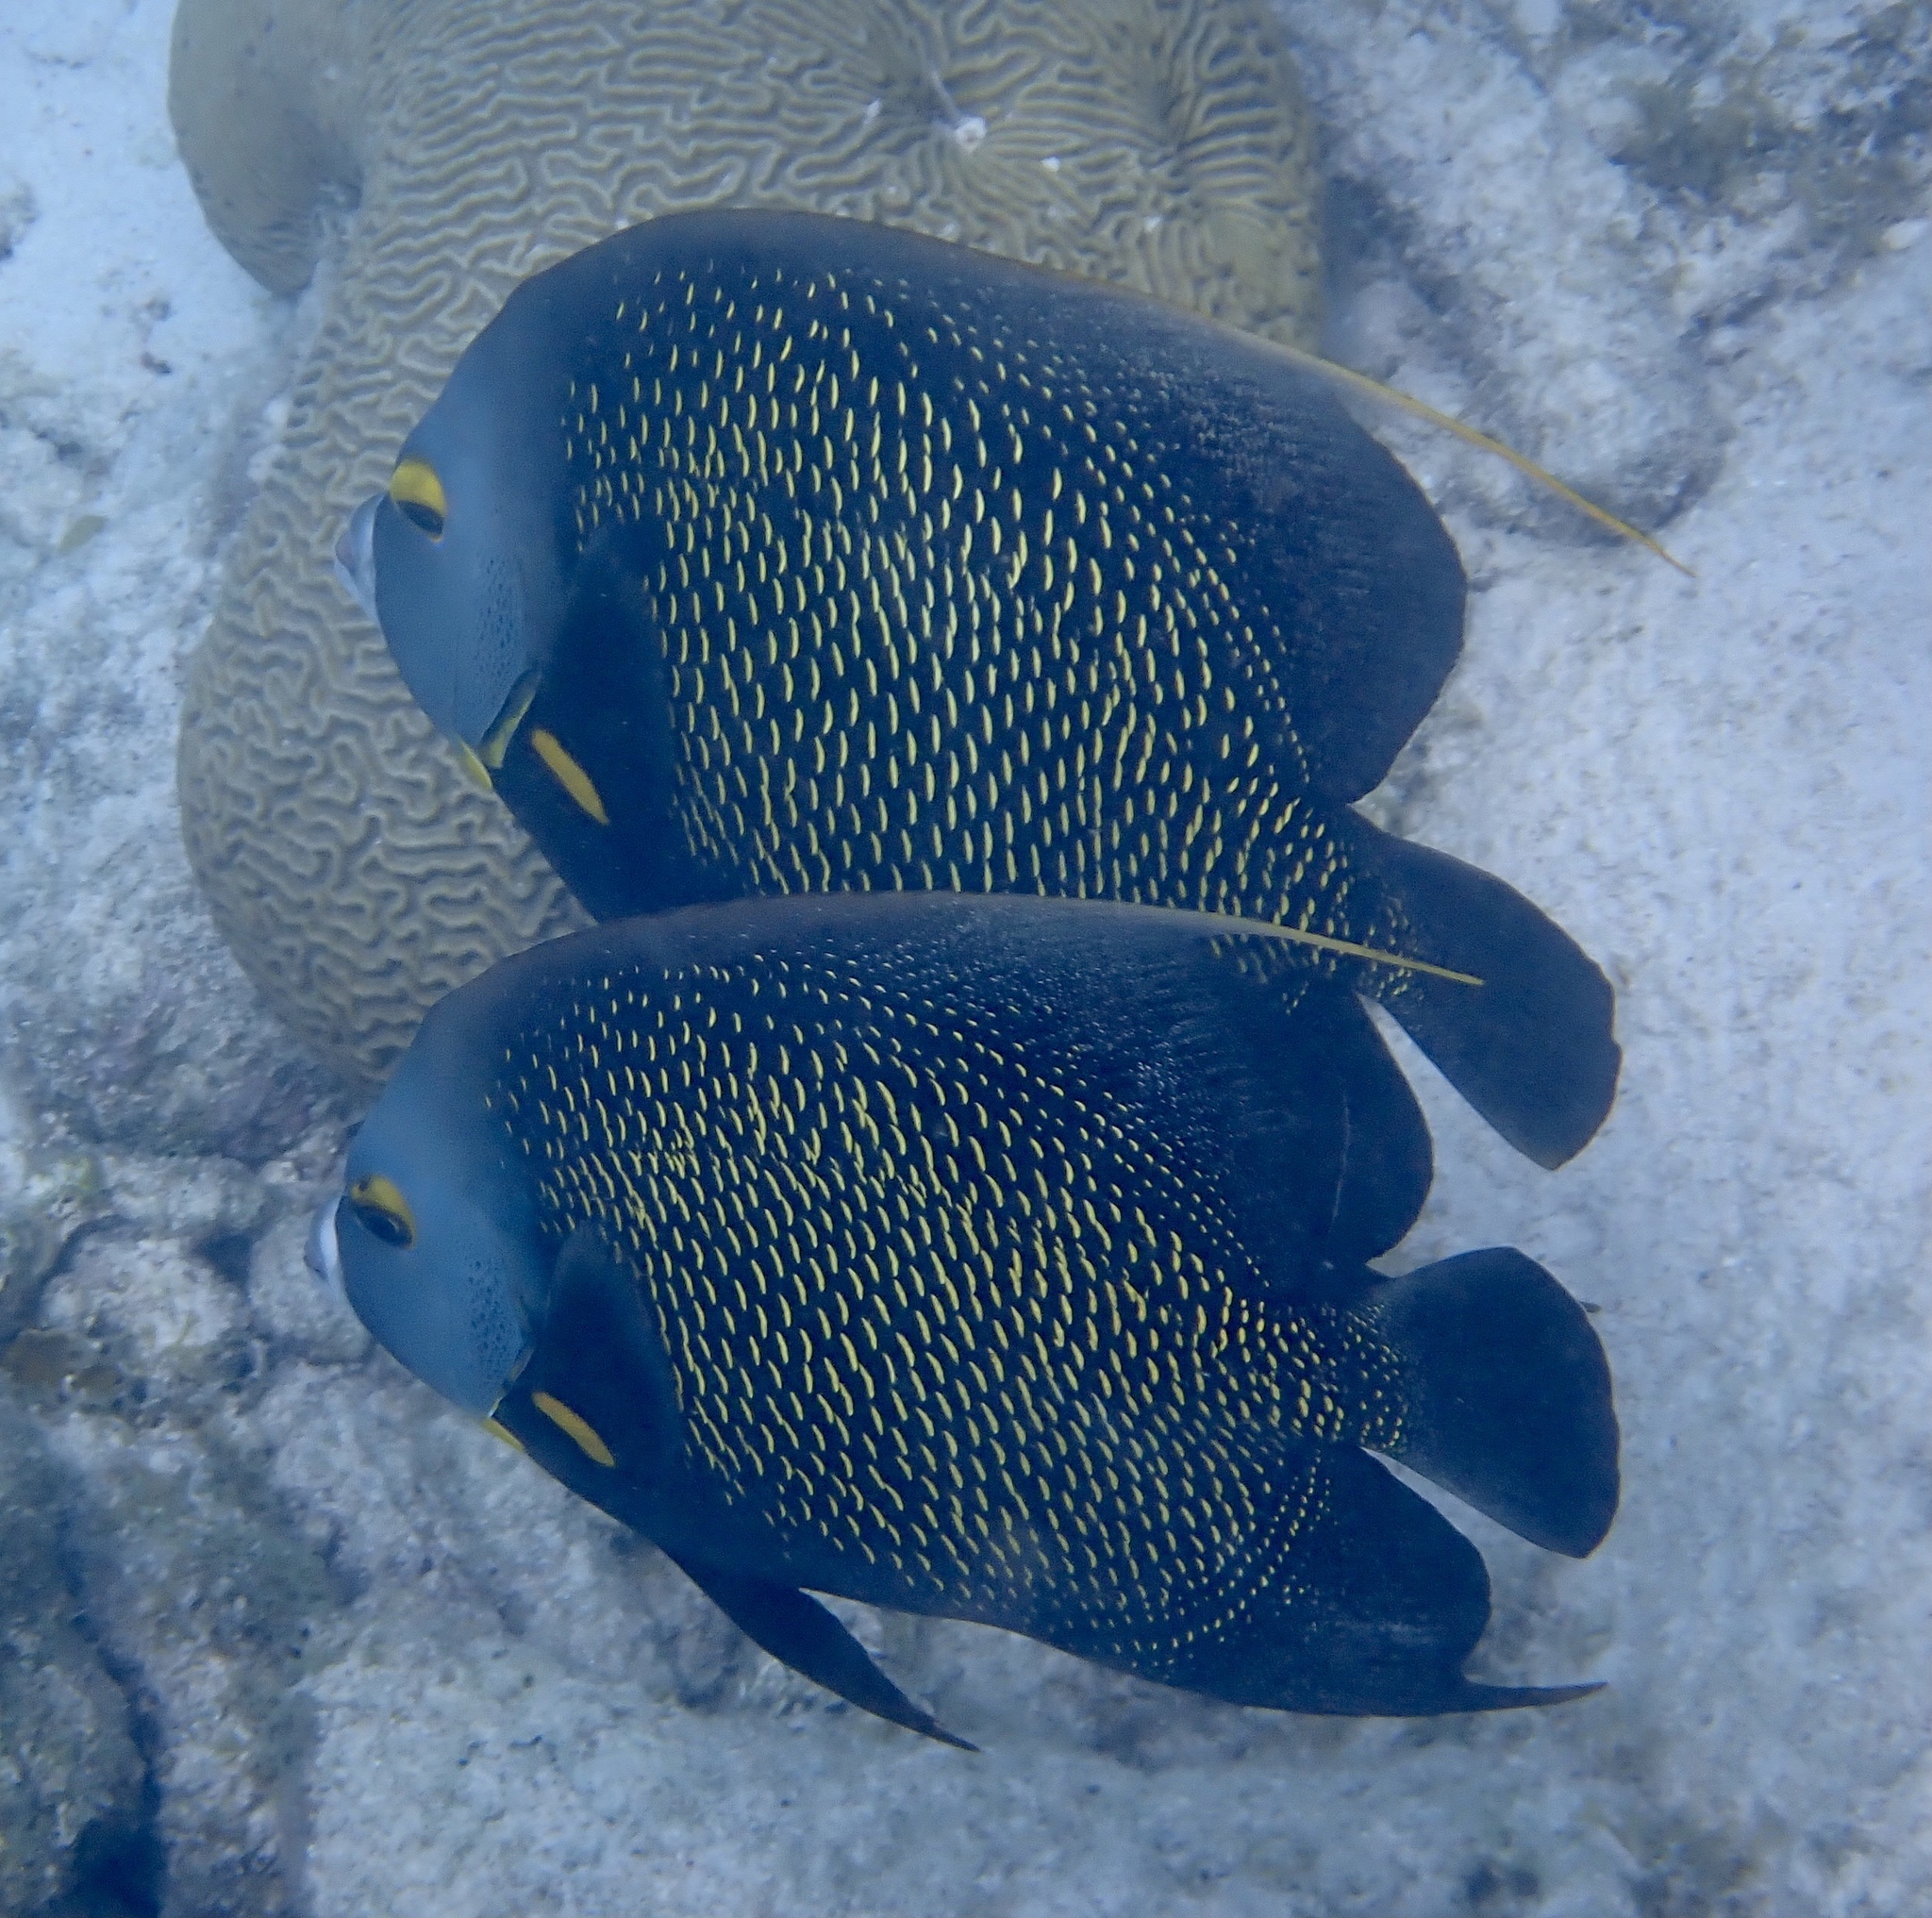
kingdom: Animalia
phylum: Chordata
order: Perciformes
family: Pomacanthidae
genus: Pomacanthus
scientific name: Pomacanthus paru
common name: French angelfish
